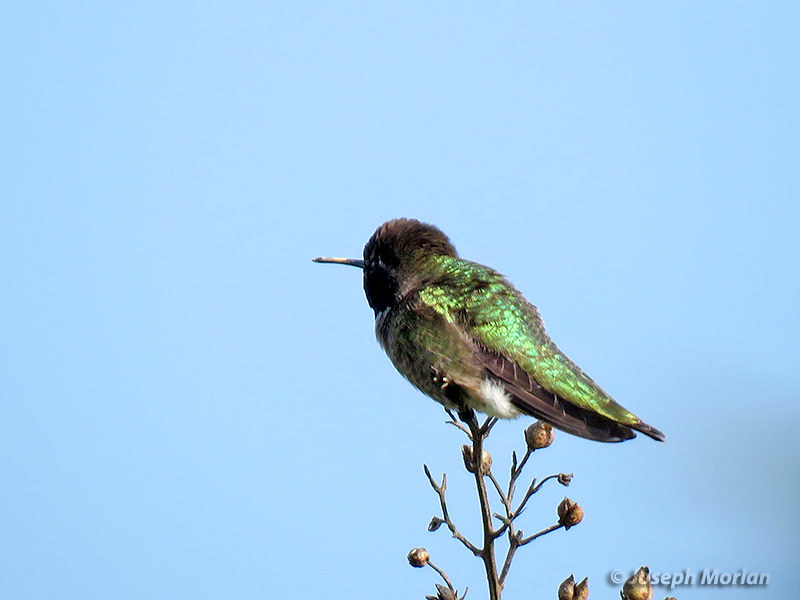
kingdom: Animalia
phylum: Chordata
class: Aves
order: Apodiformes
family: Trochilidae
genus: Calypte
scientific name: Calypte anna
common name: Anna's hummingbird
